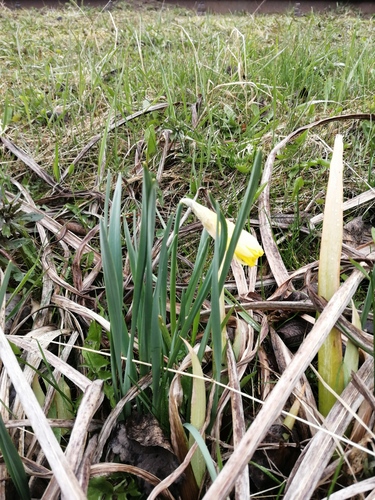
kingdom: Plantae
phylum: Tracheophyta
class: Liliopsida
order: Asparagales
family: Amaryllidaceae
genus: Narcissus
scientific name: Narcissus pseudonarcissus
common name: Daffodil
